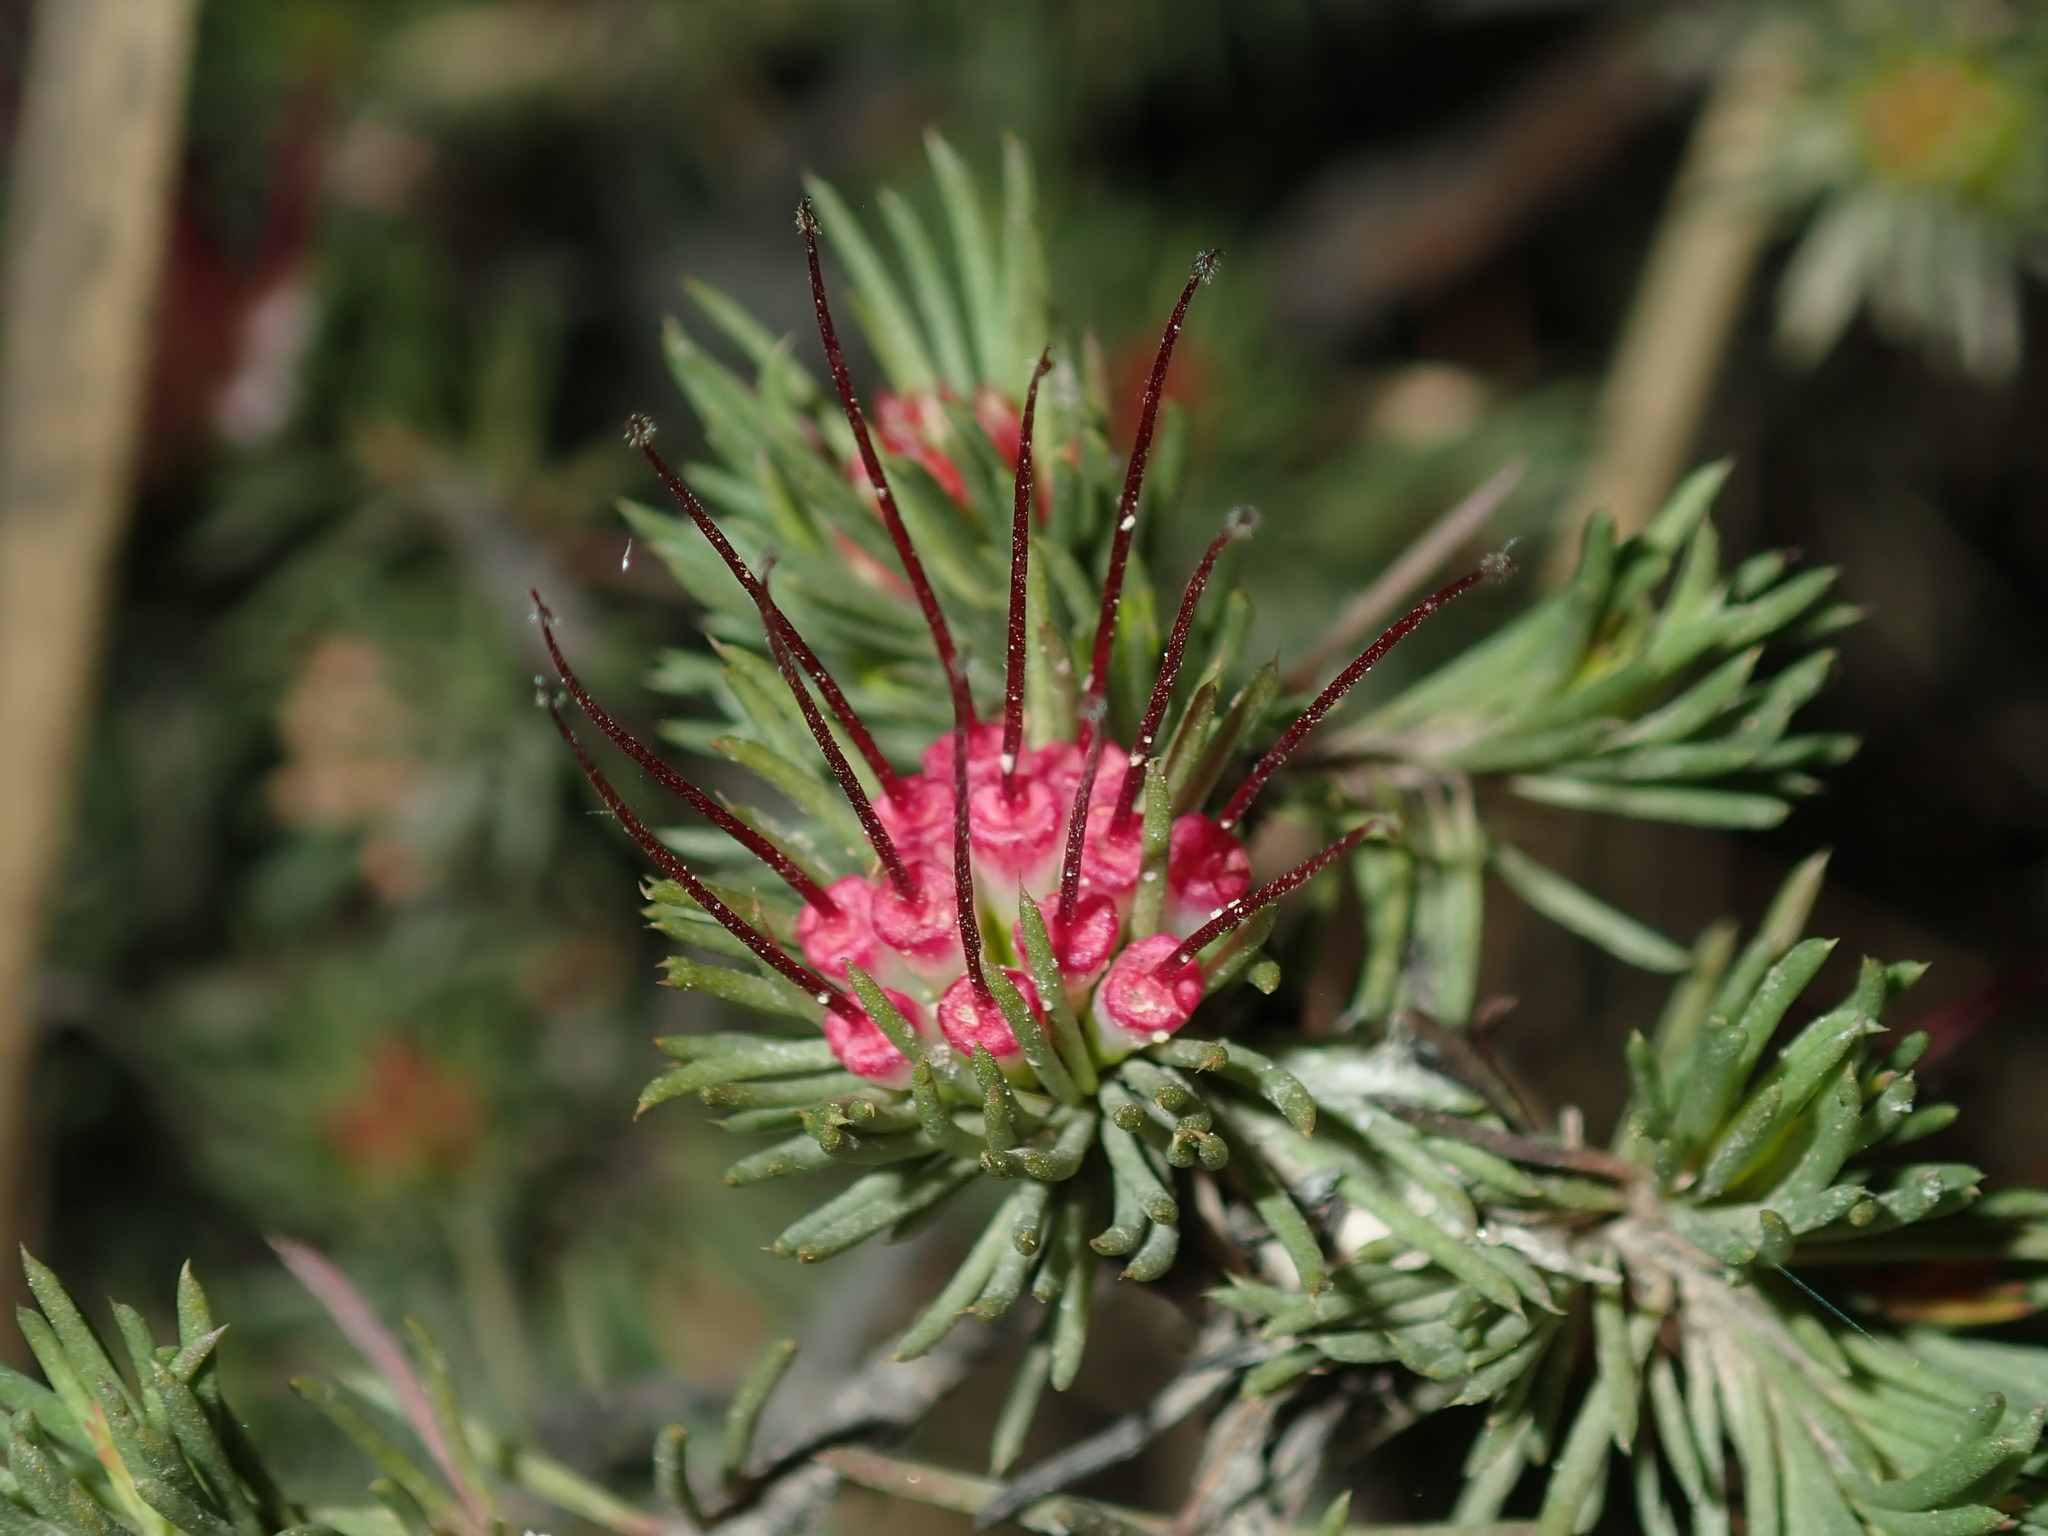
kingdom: Plantae
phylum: Tracheophyta
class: Magnoliopsida
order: Myrtales
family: Myrtaceae
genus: Darwinia
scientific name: Darwinia fascicularis
